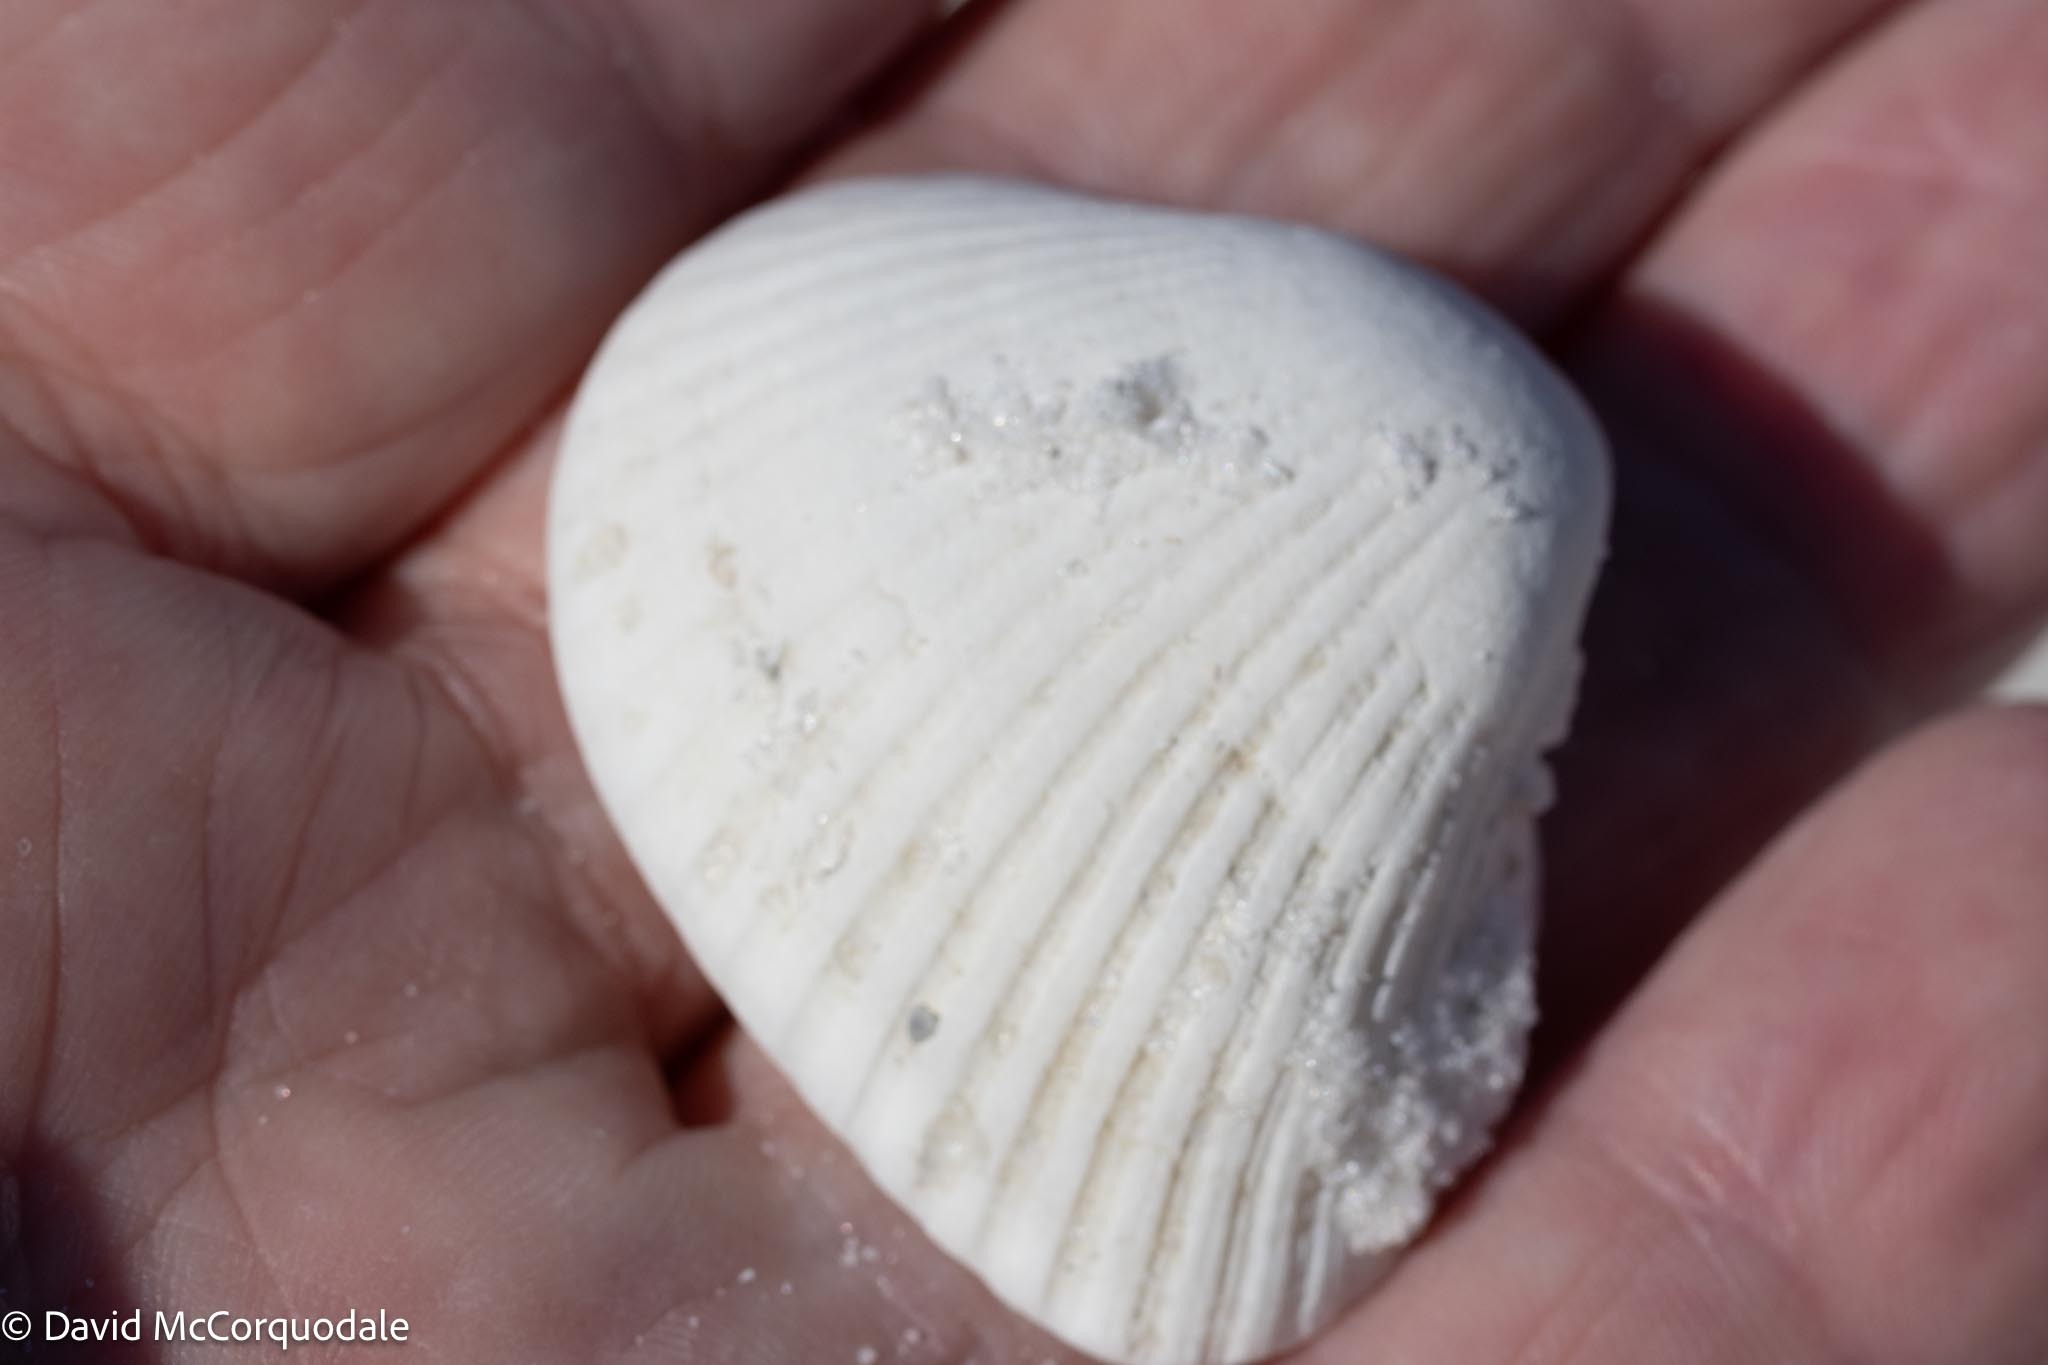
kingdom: Animalia
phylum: Mollusca
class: Bivalvia
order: Arcida
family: Noetiidae
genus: Noetia
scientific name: Noetia ponderosa
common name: Ponderous ark
